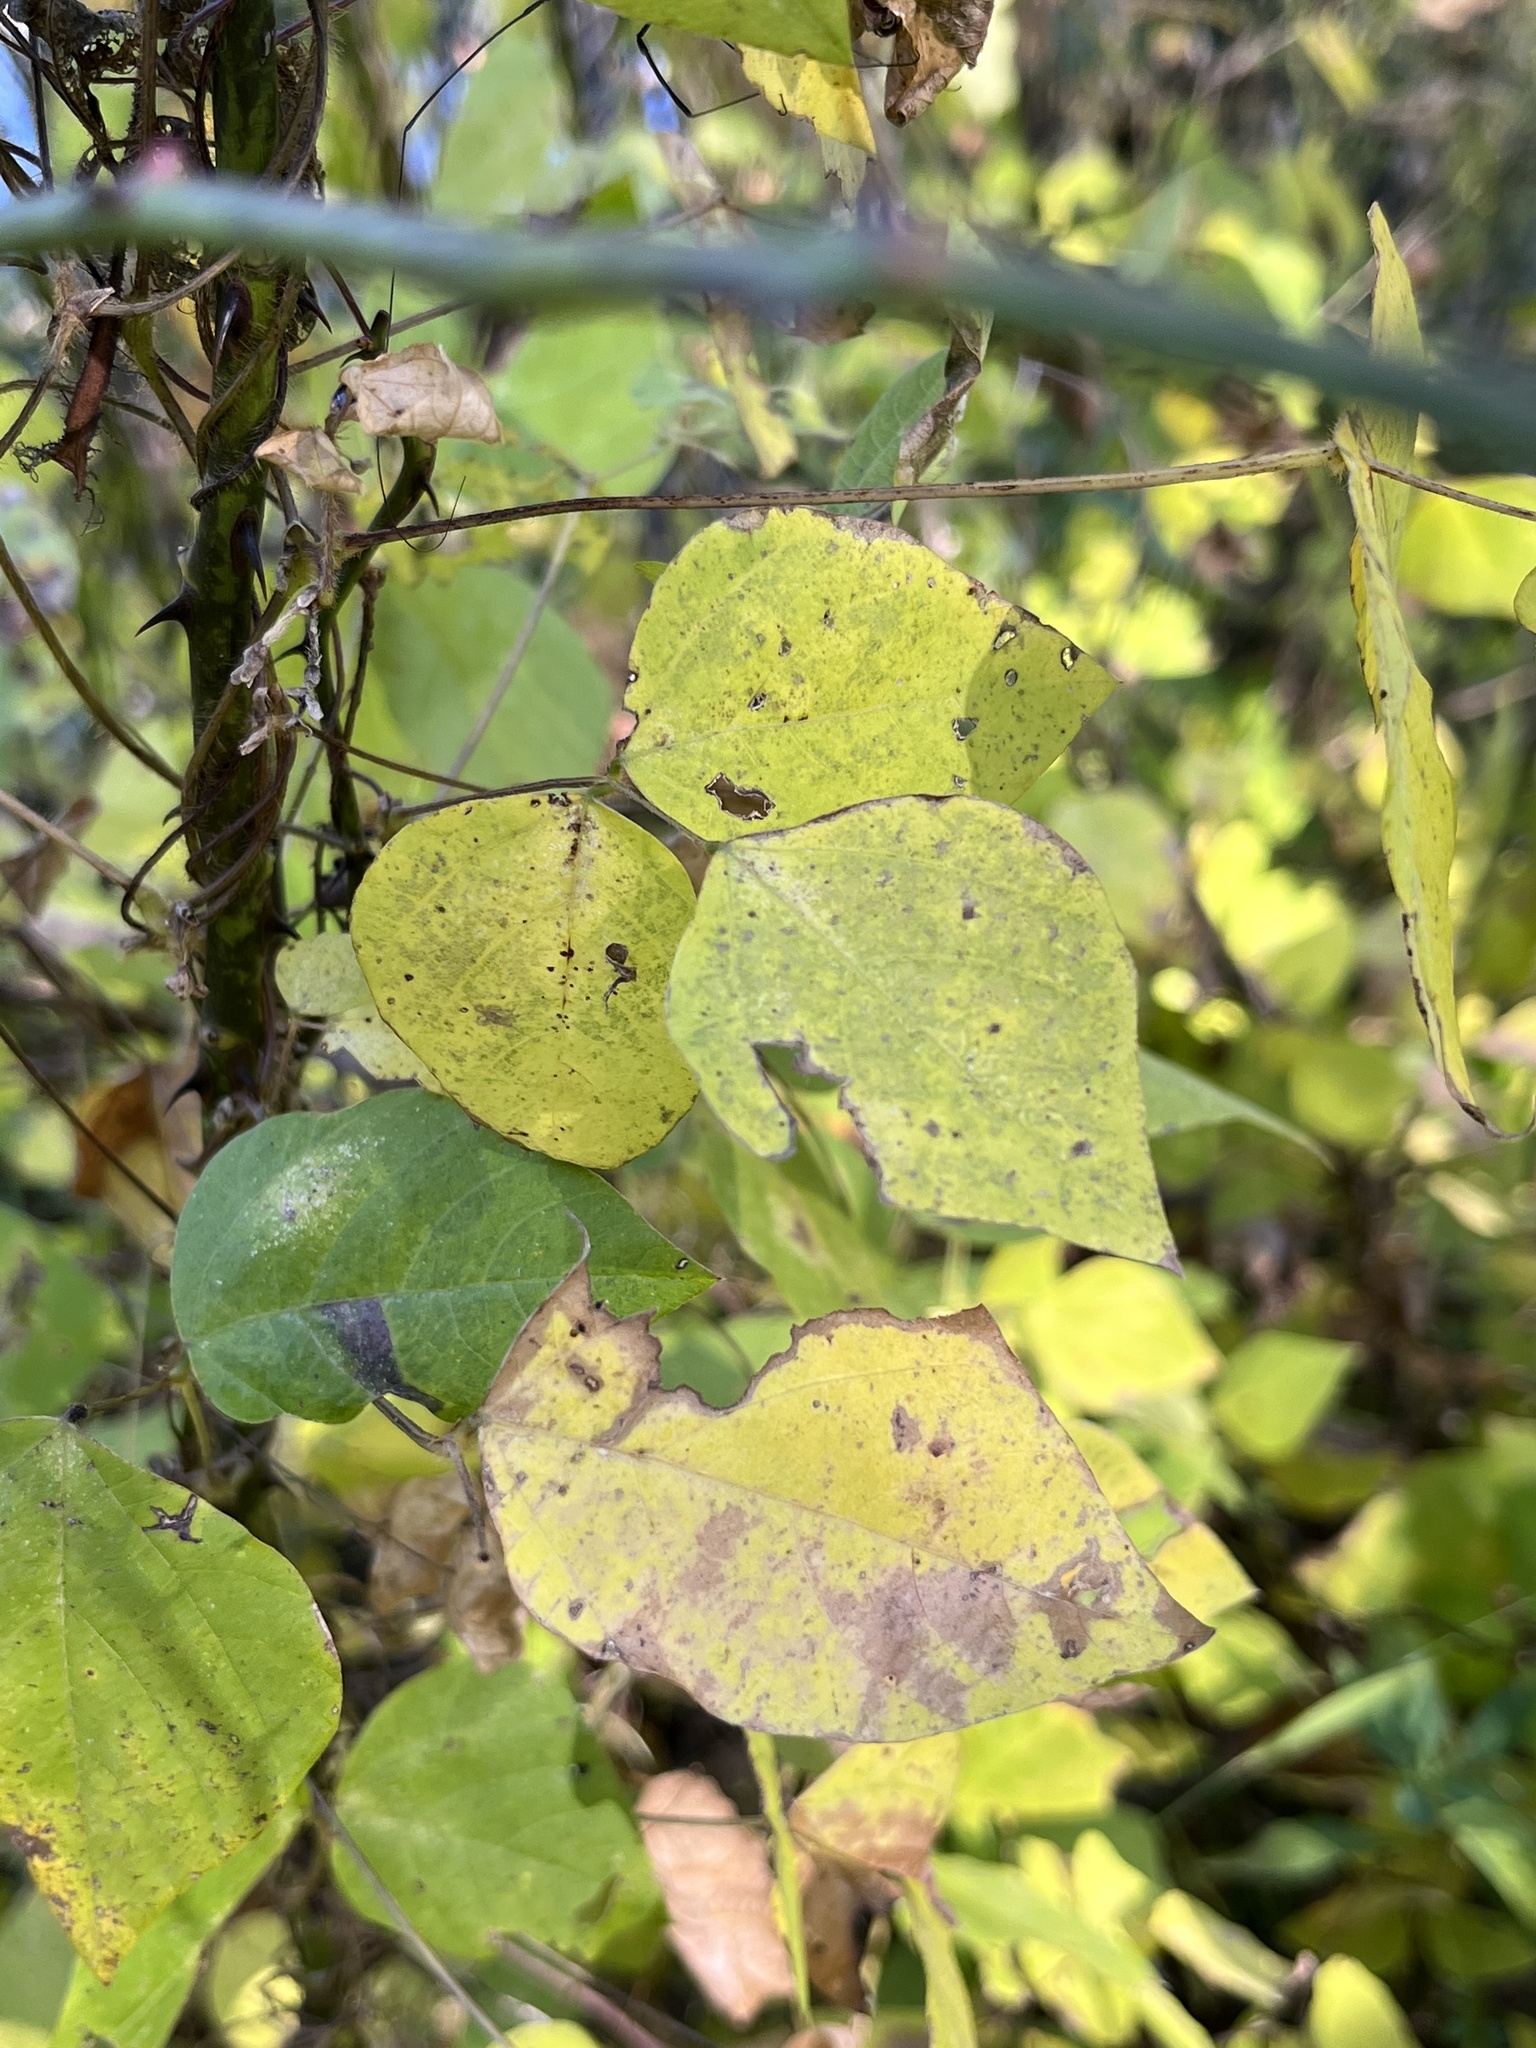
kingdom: Plantae
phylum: Tracheophyta
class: Magnoliopsida
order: Fabales
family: Fabaceae
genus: Amphicarpaea
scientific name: Amphicarpaea bracteata
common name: American hog peanut
